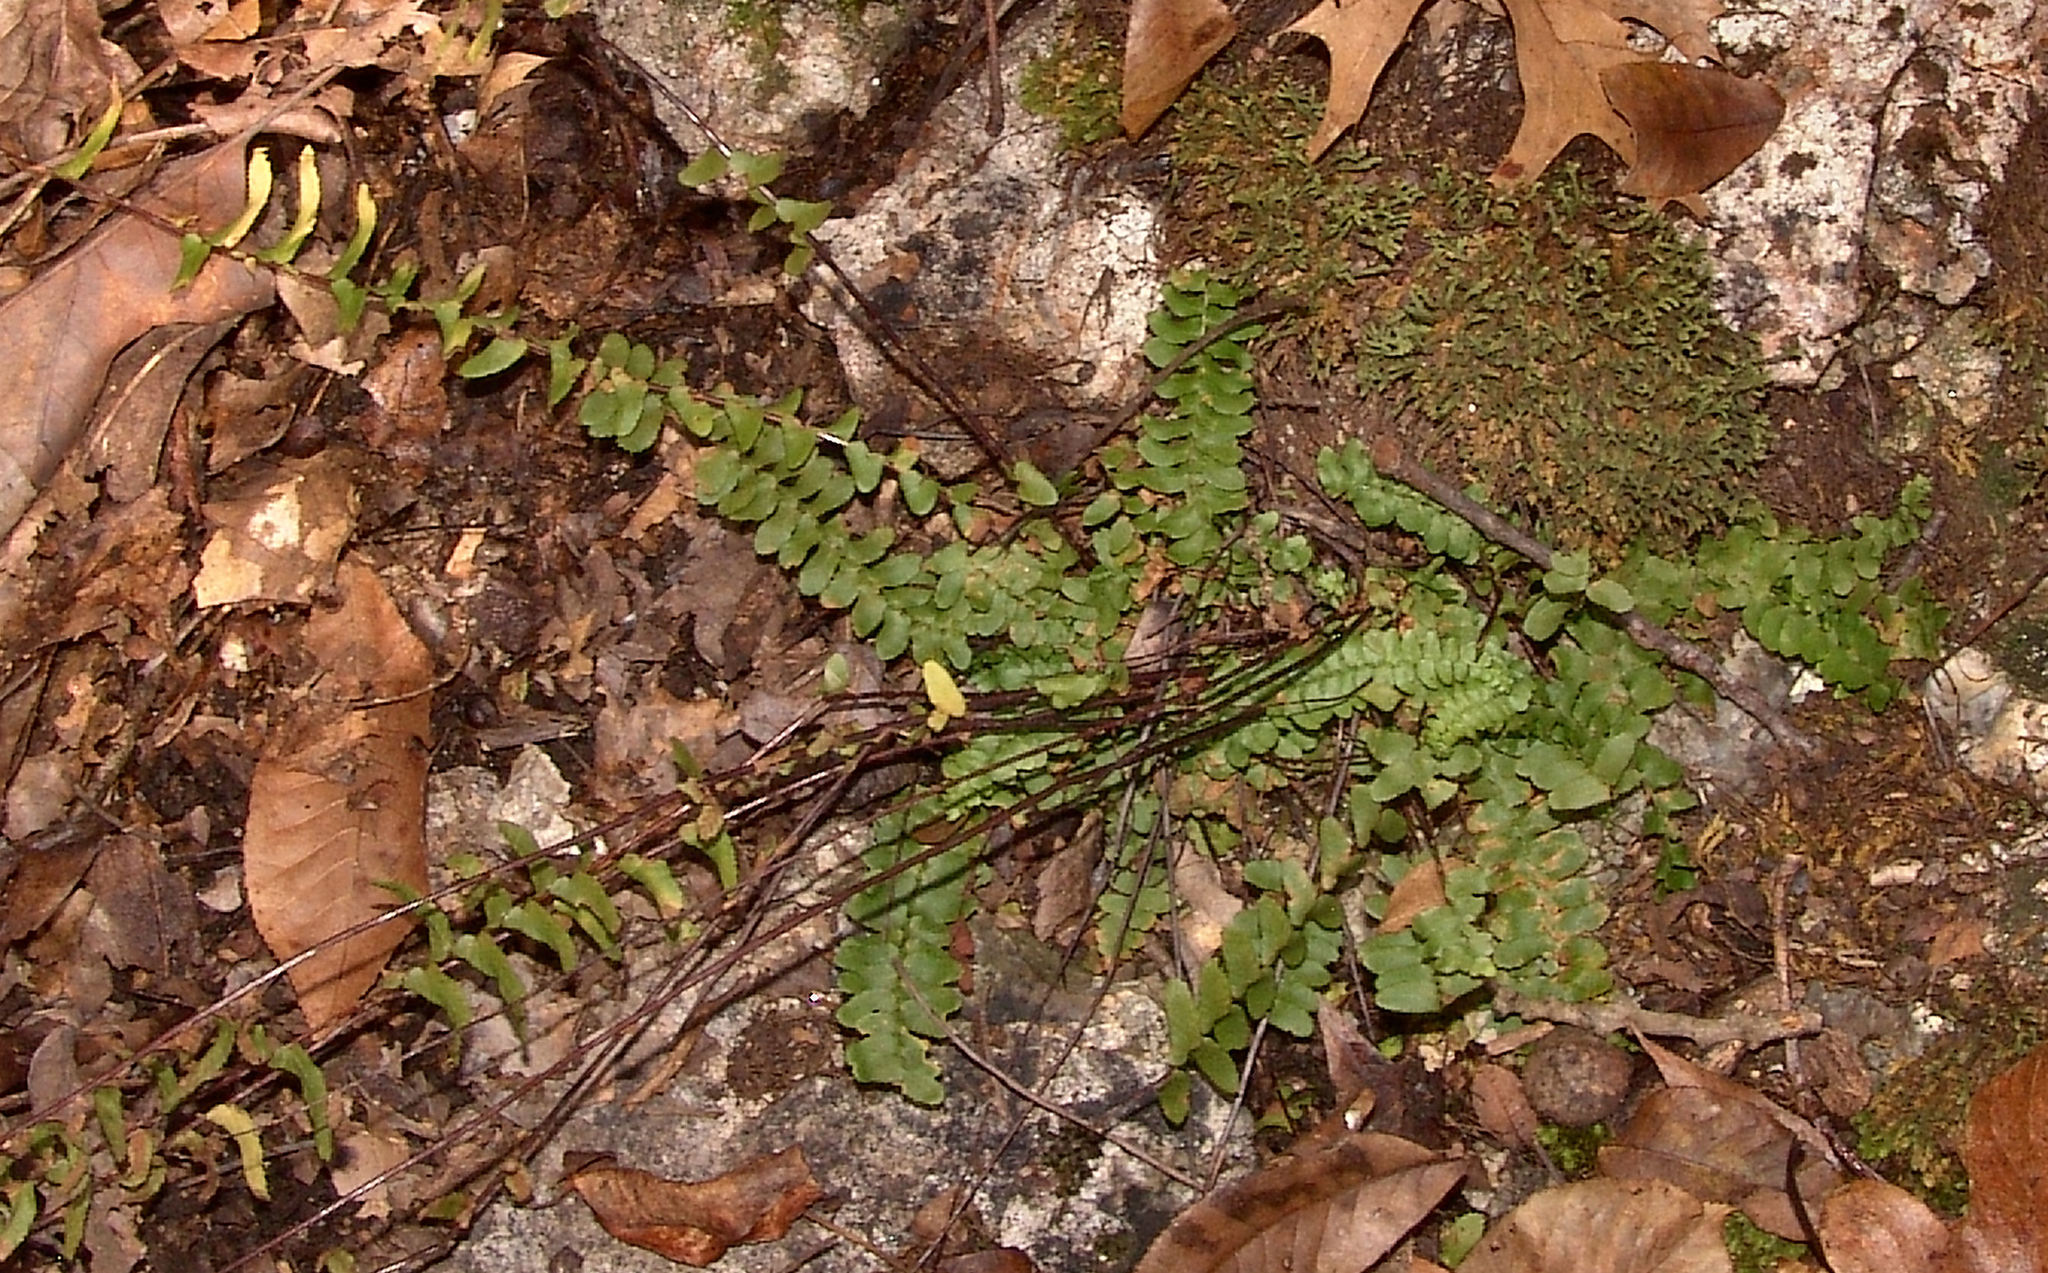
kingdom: Plantae
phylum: Tracheophyta
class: Polypodiopsida
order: Polypodiales
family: Aspleniaceae
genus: Asplenium
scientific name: Asplenium platyneuron
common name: Ebony spleenwort
